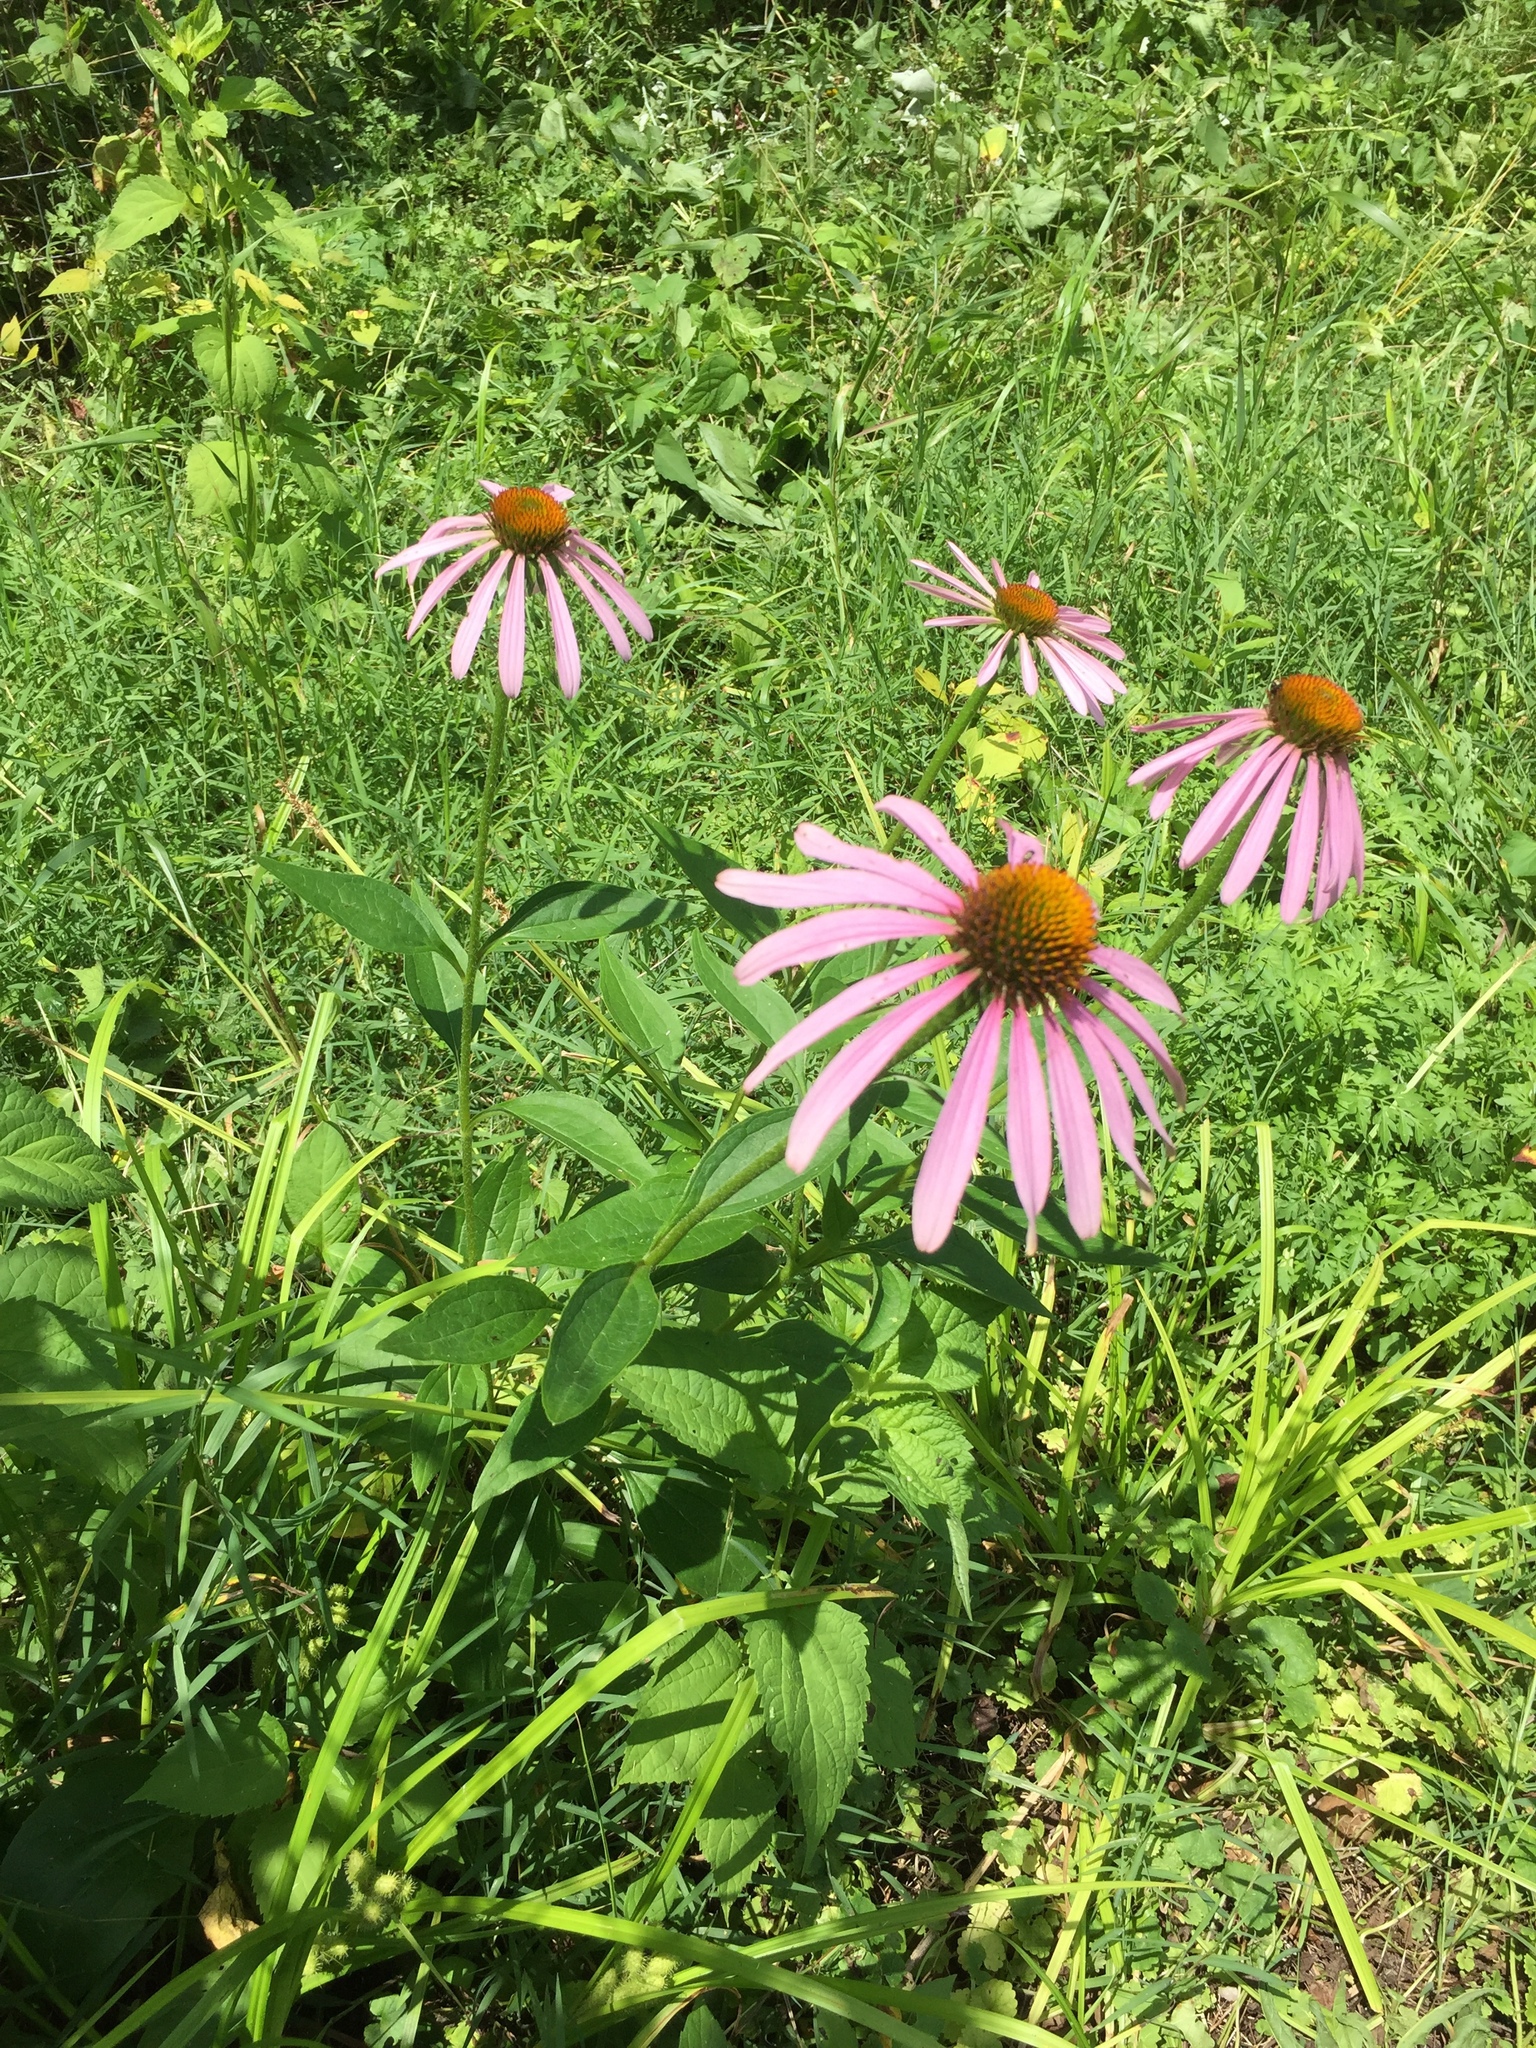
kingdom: Plantae
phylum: Tracheophyta
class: Magnoliopsida
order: Asterales
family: Asteraceae
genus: Echinacea
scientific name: Echinacea purpurea
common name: Broad-leaved purple coneflower
